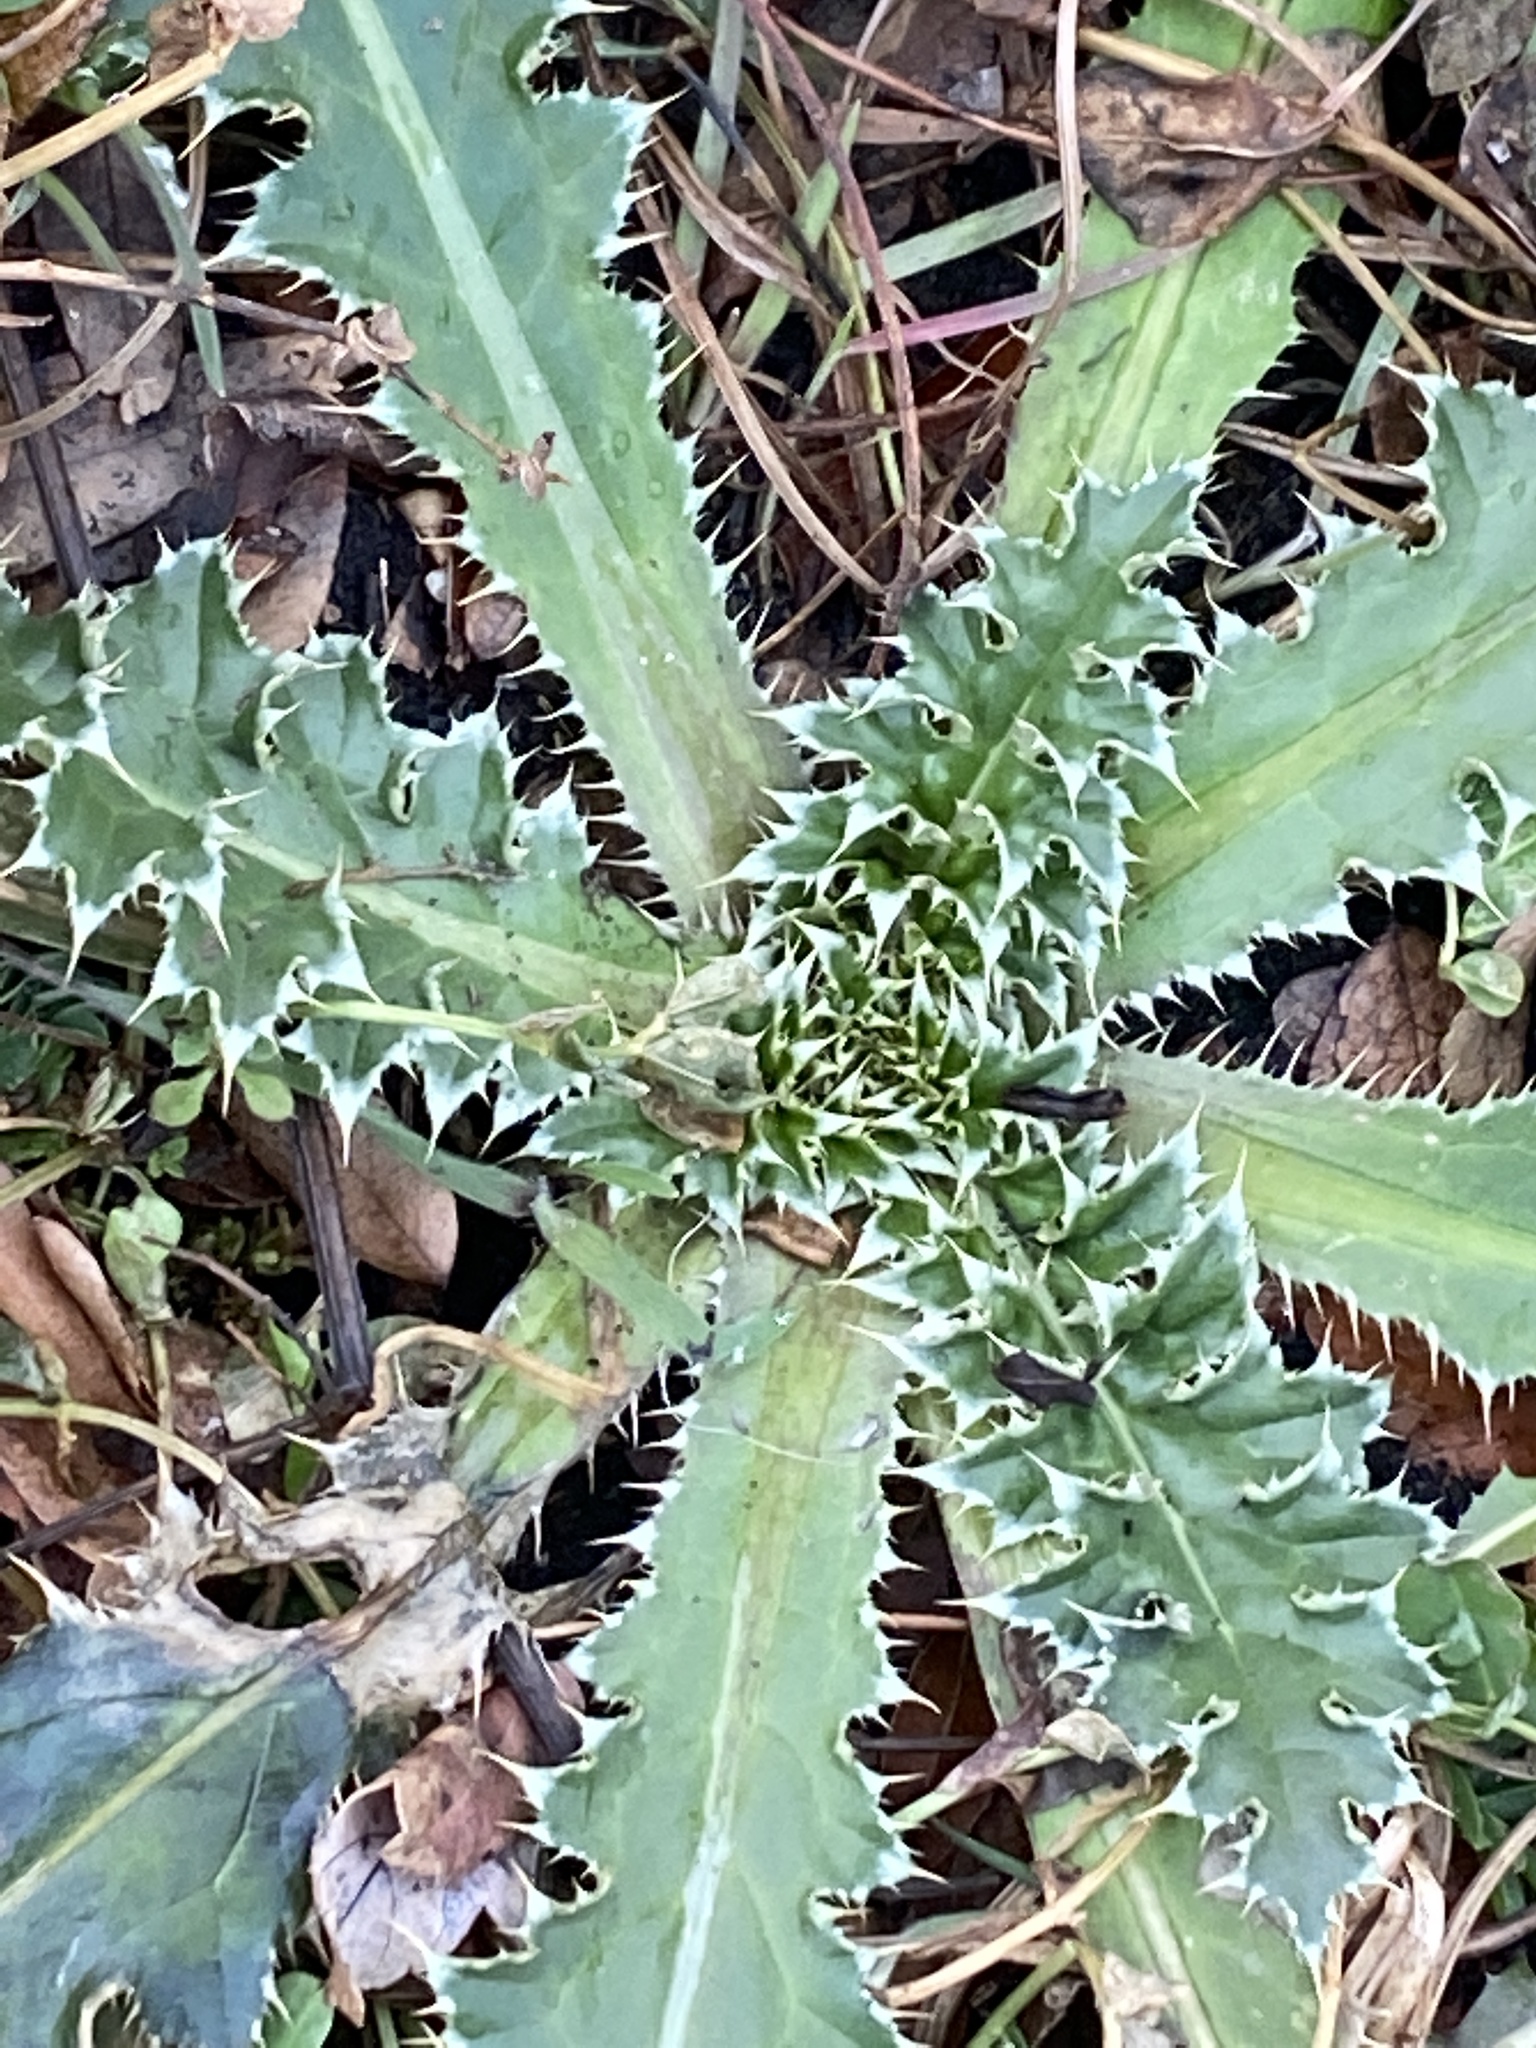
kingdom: Plantae
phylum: Tracheophyta
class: Magnoliopsida
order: Asterales
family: Asteraceae
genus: Carduus
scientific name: Carduus nutans
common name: Musk thistle
